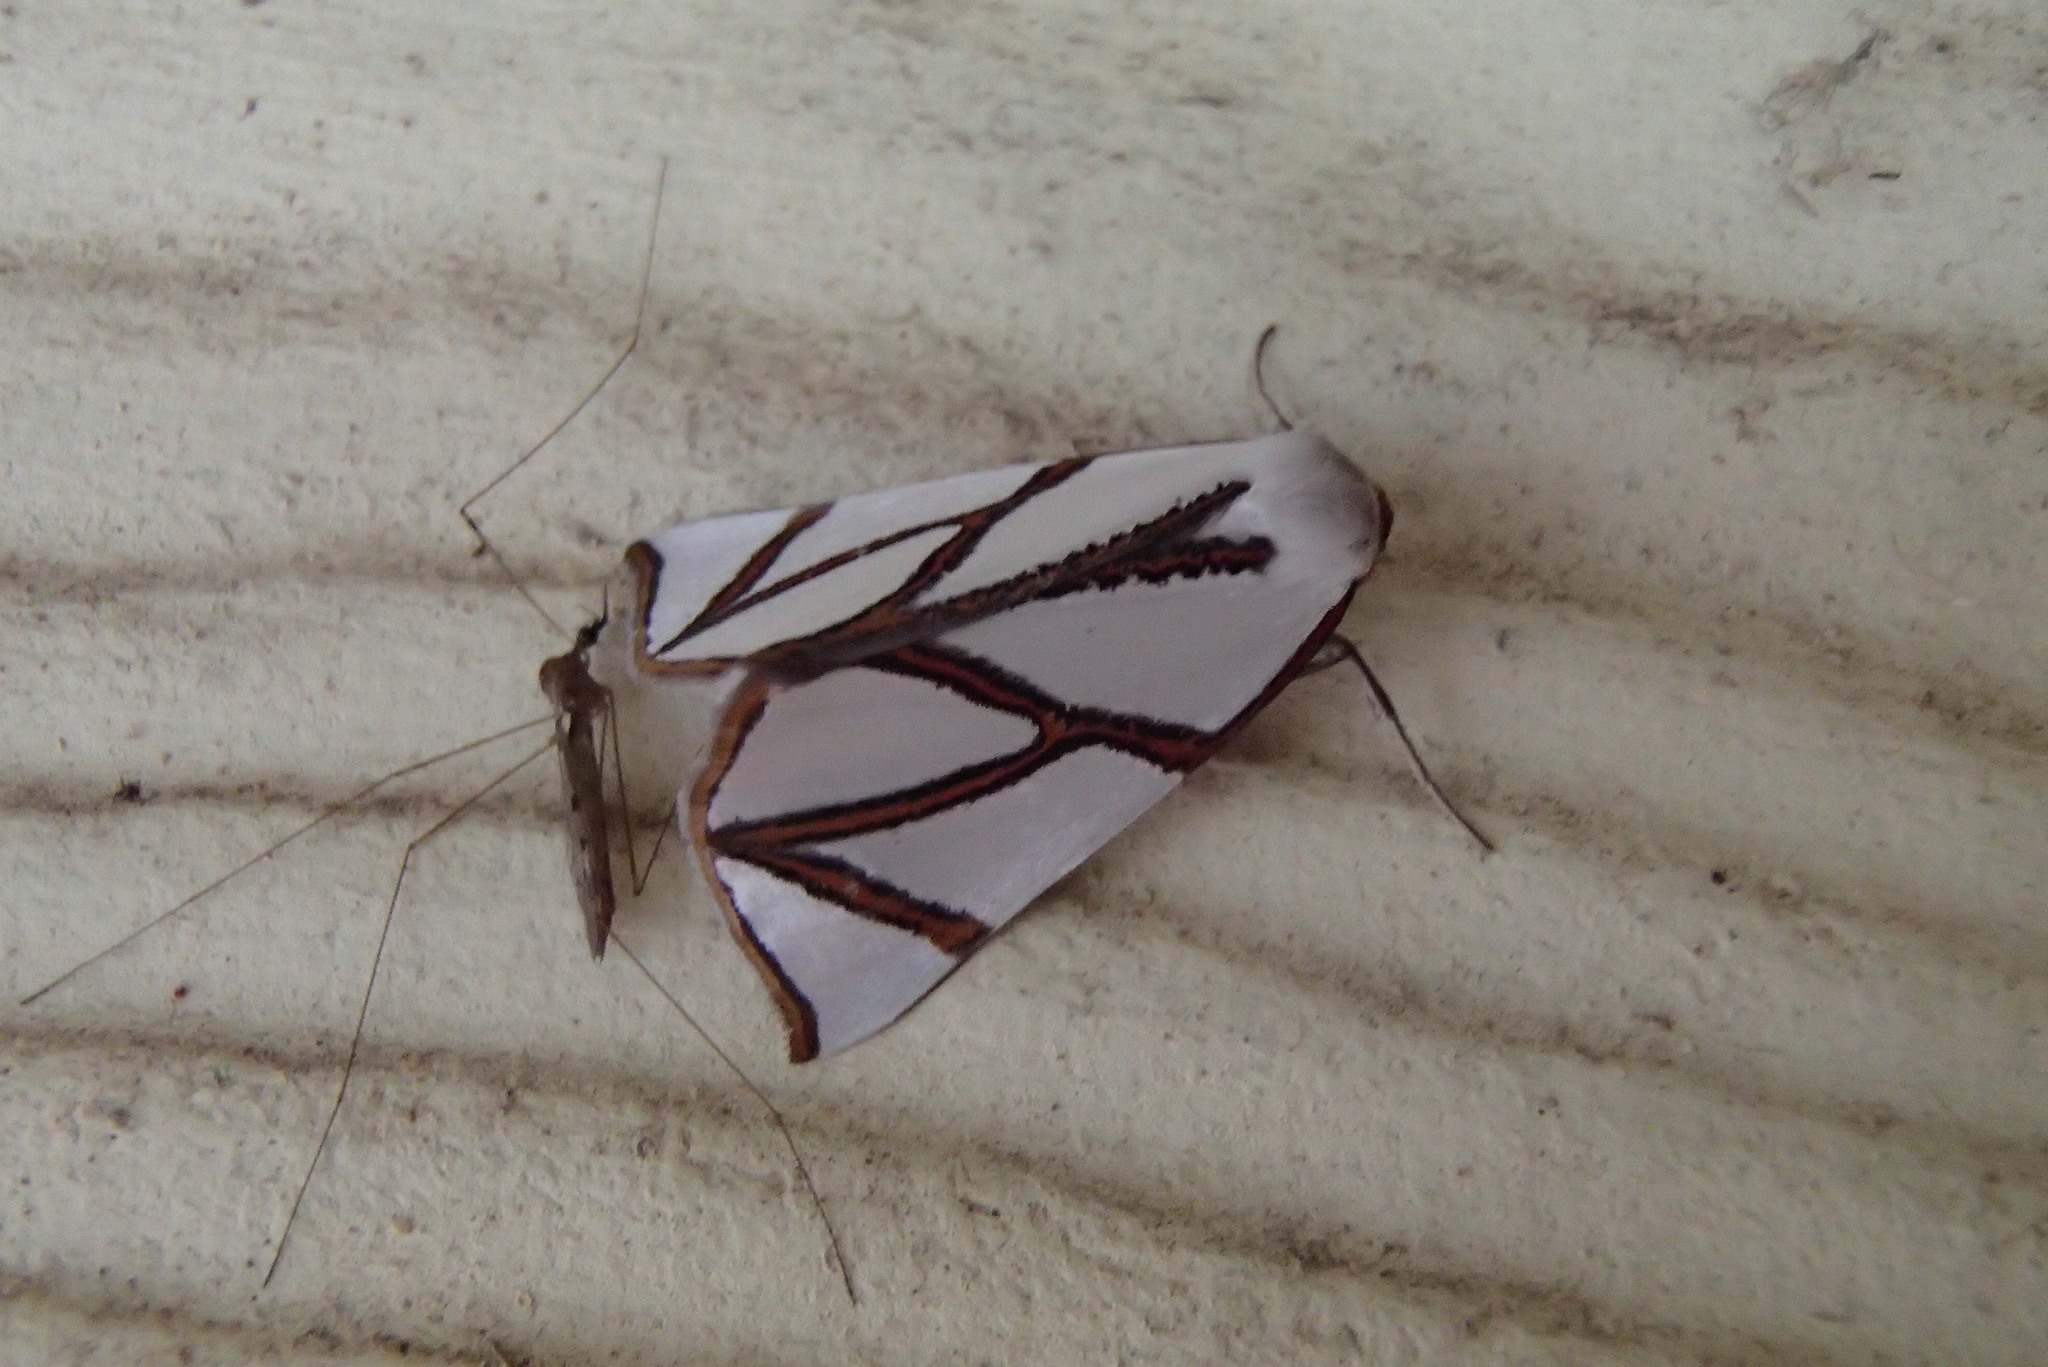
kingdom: Animalia
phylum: Arthropoda
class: Insecta
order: Lepidoptera
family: Geometridae
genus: Thalaina
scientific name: Thalaina clara
